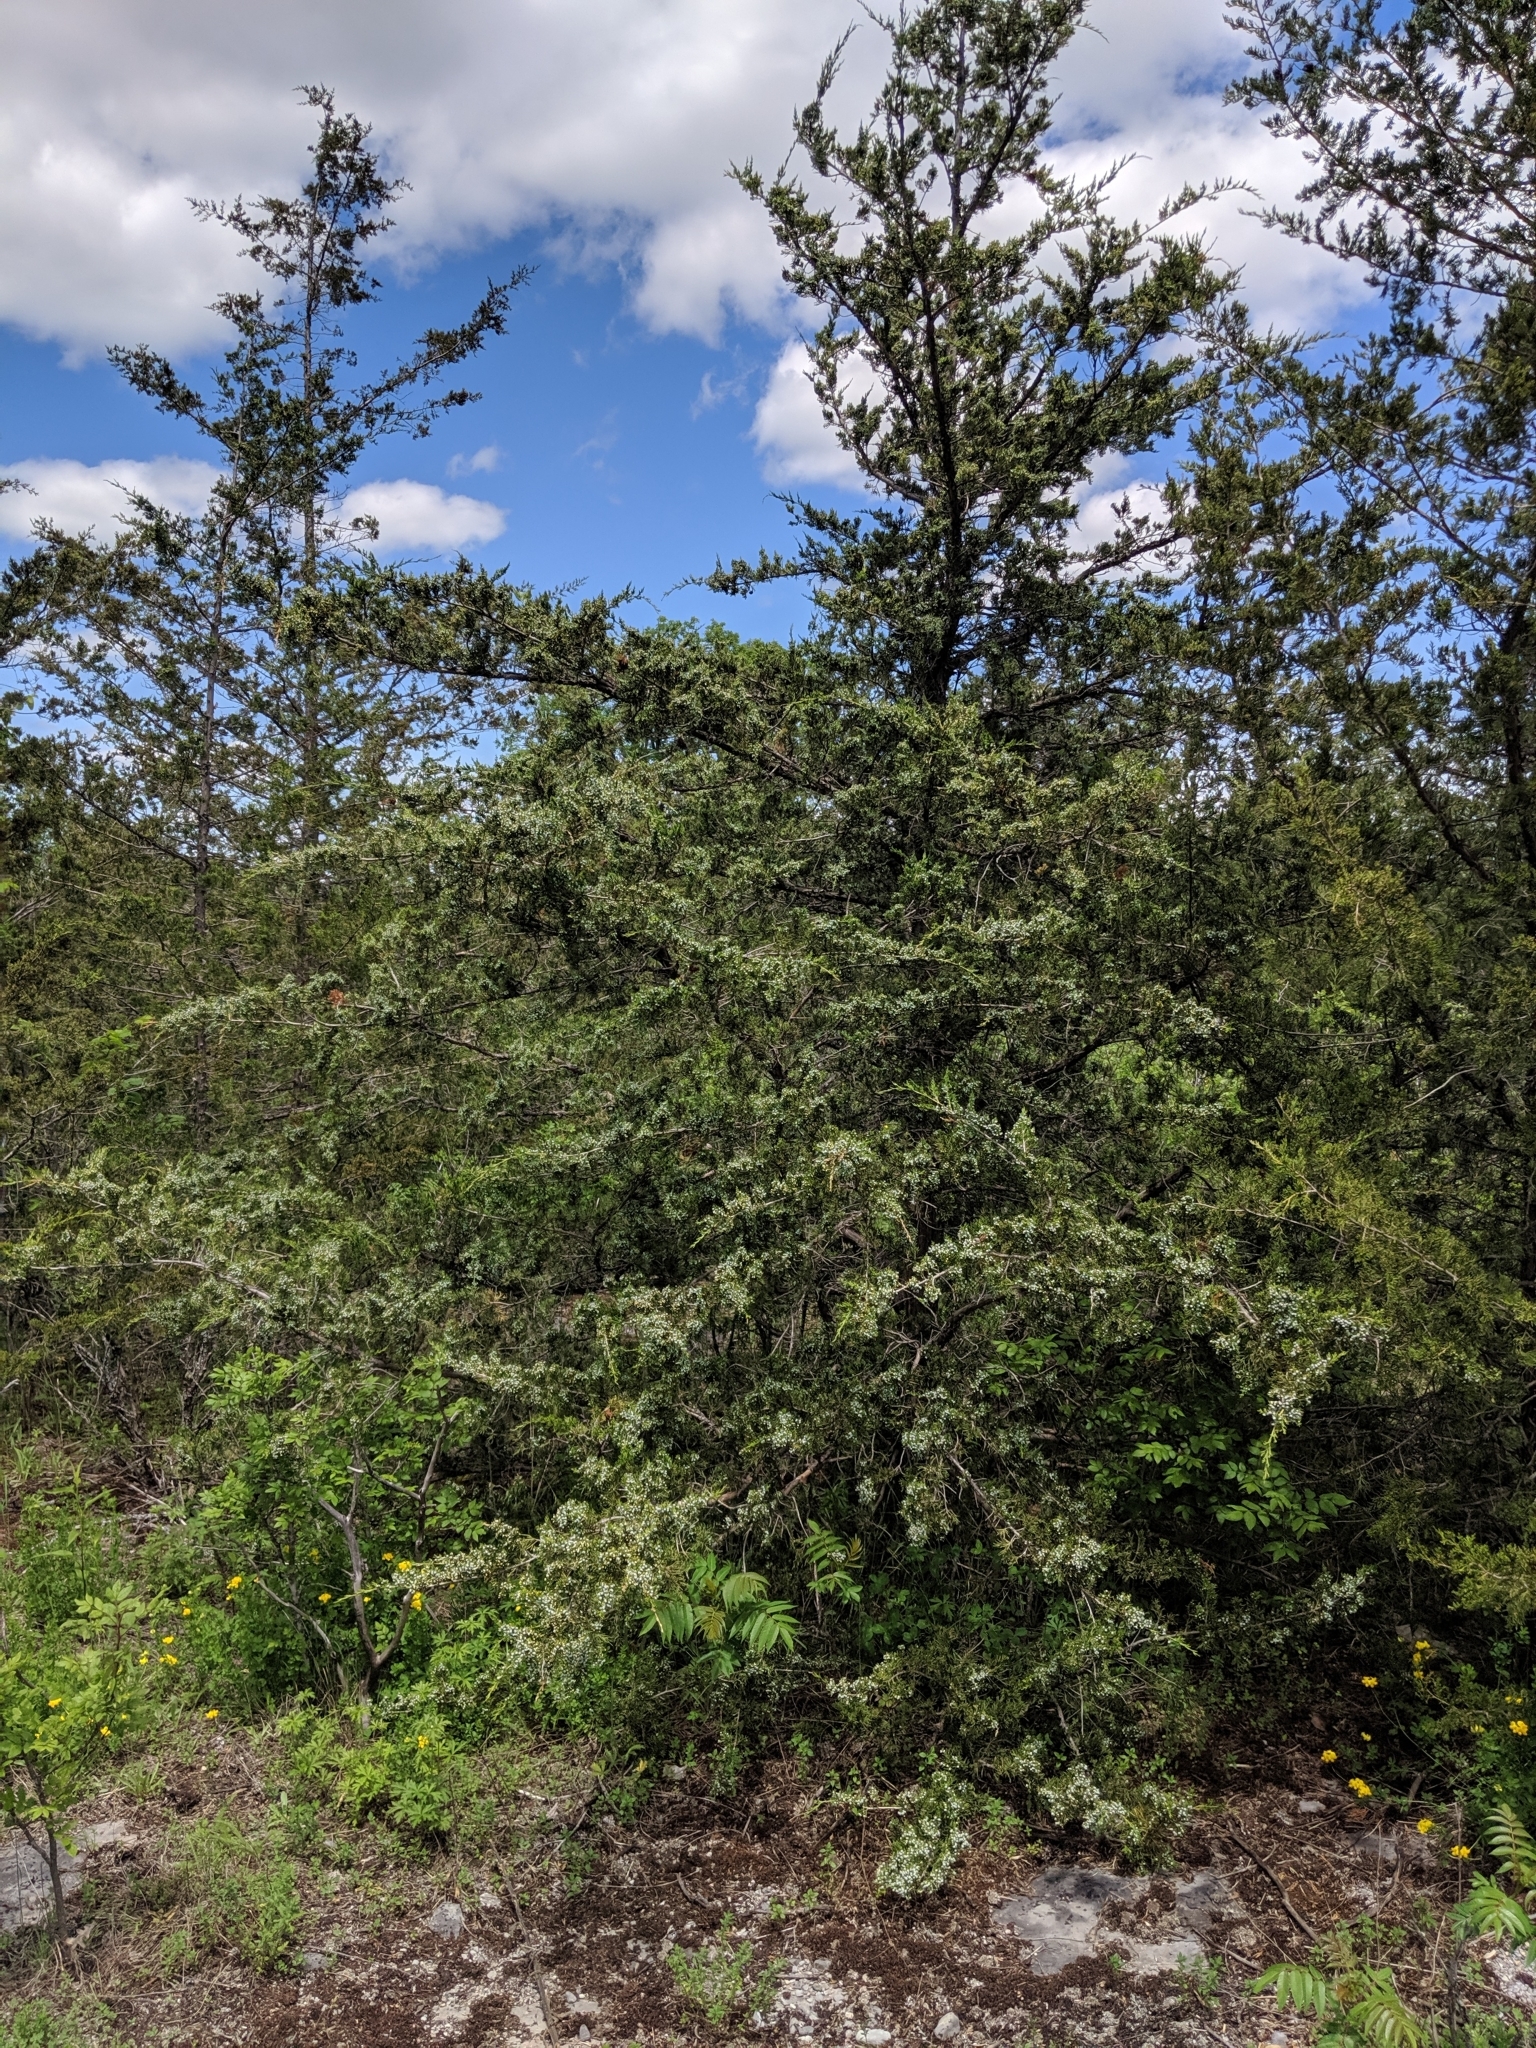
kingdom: Plantae
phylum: Tracheophyta
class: Pinopsida
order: Pinales
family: Cupressaceae
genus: Juniperus
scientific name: Juniperus virginiana
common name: Red juniper
